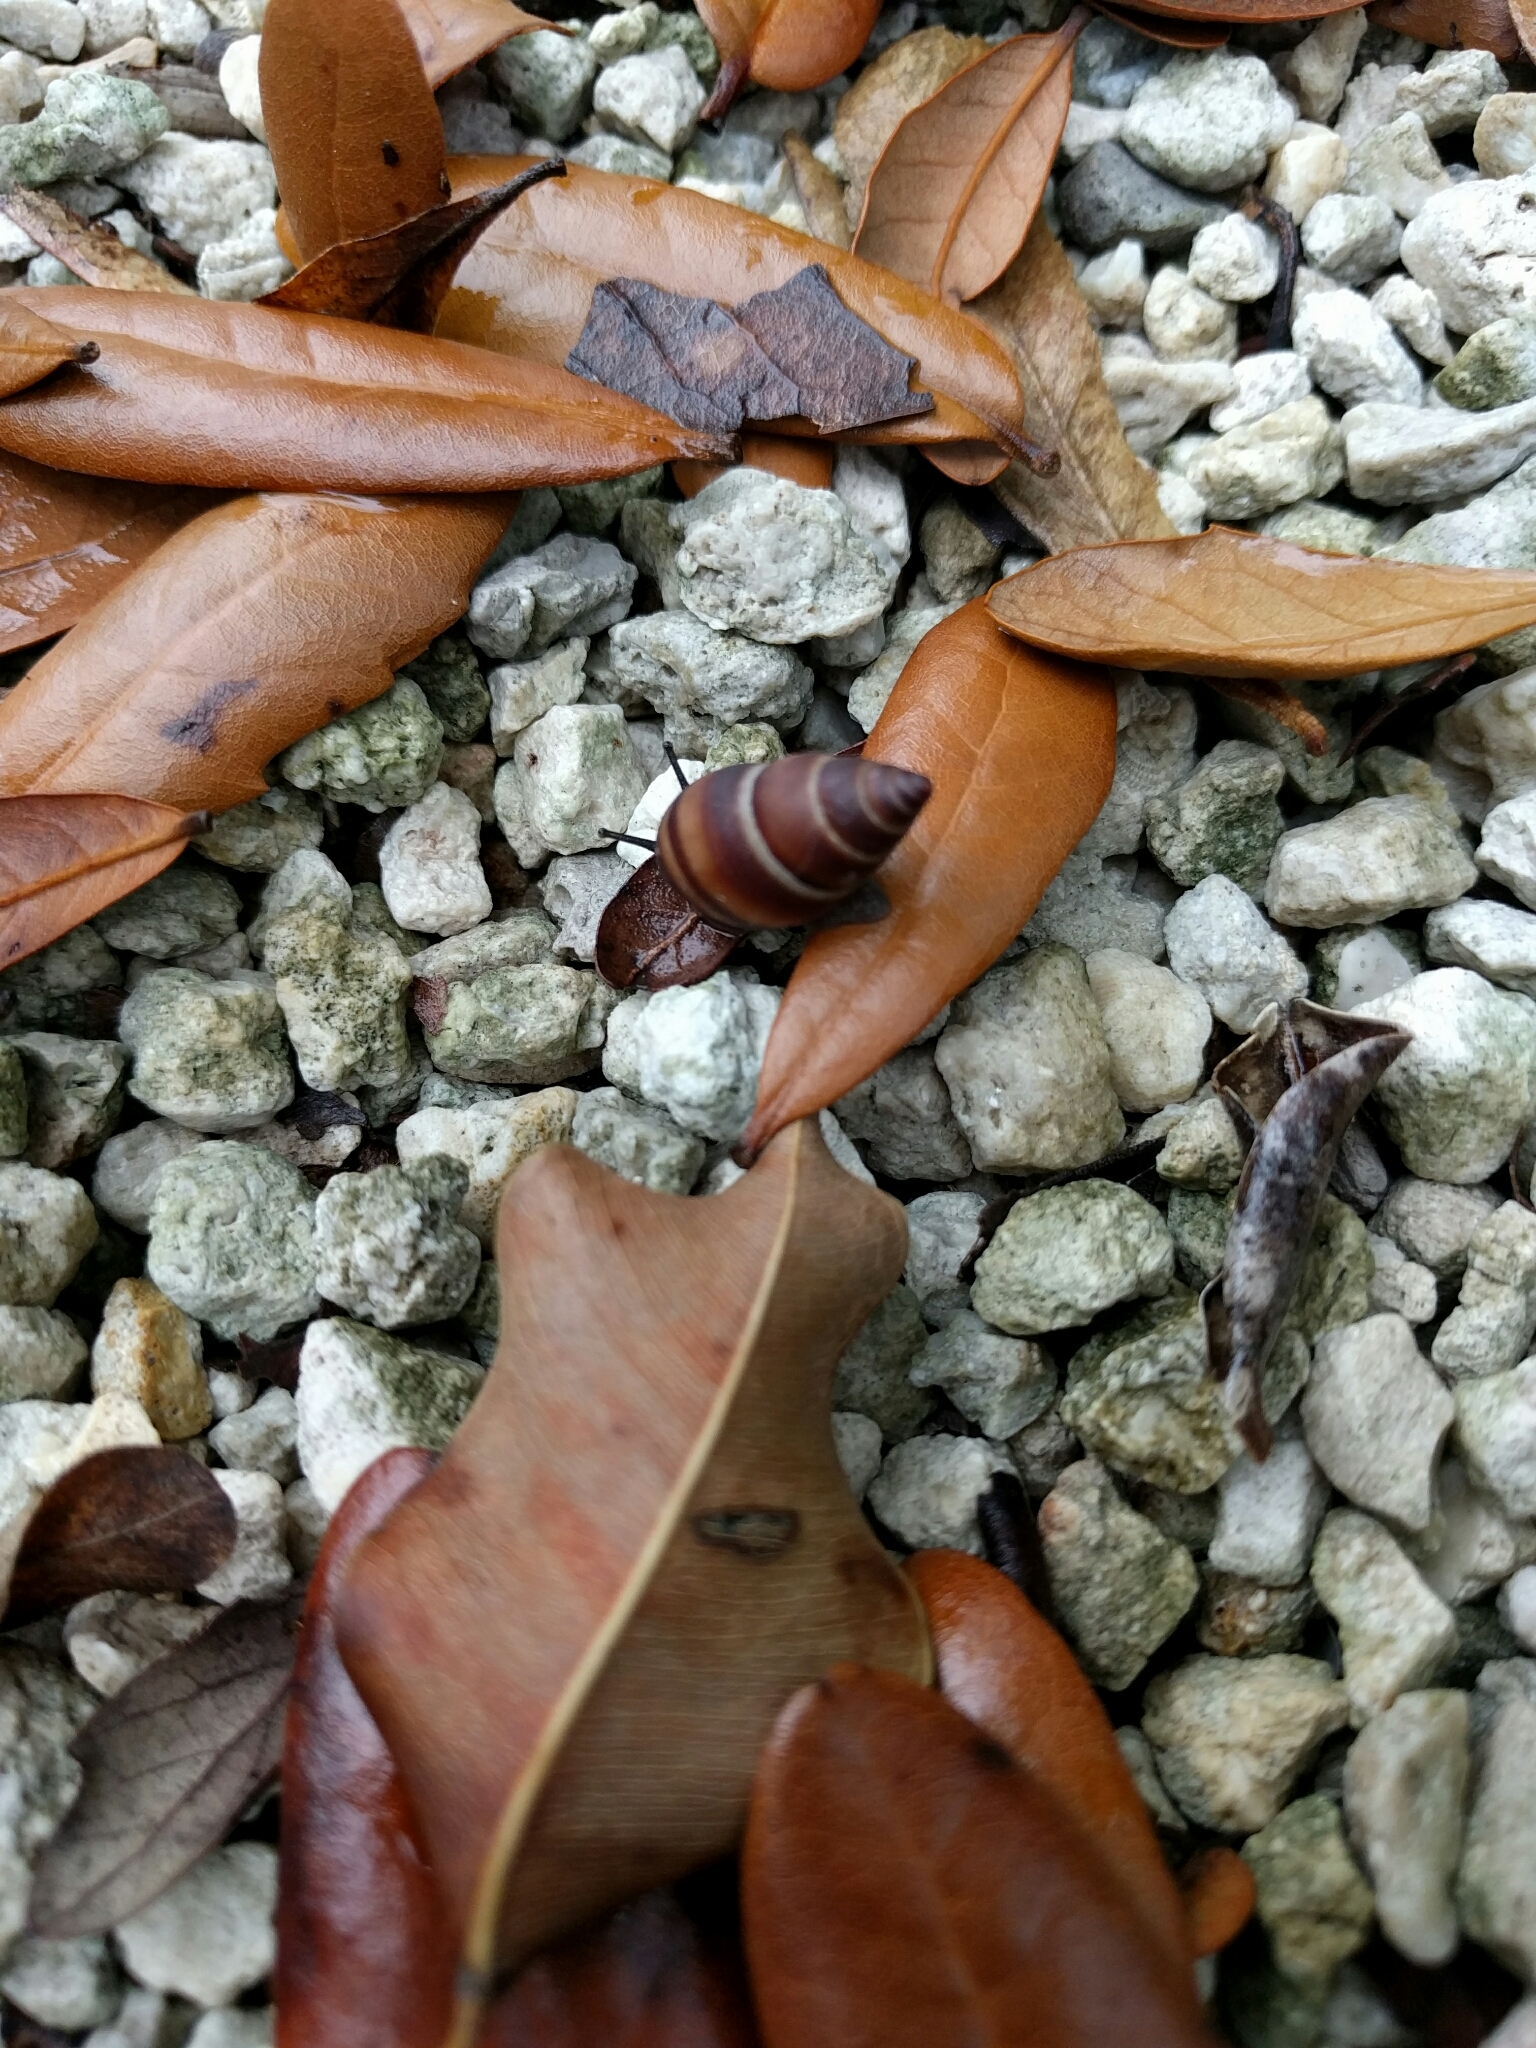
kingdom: Animalia
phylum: Mollusca
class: Gastropoda
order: Stylommatophora
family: Bulimulidae
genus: Bulimulus
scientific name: Bulimulus guadalupensis
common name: West indian bulimulus
